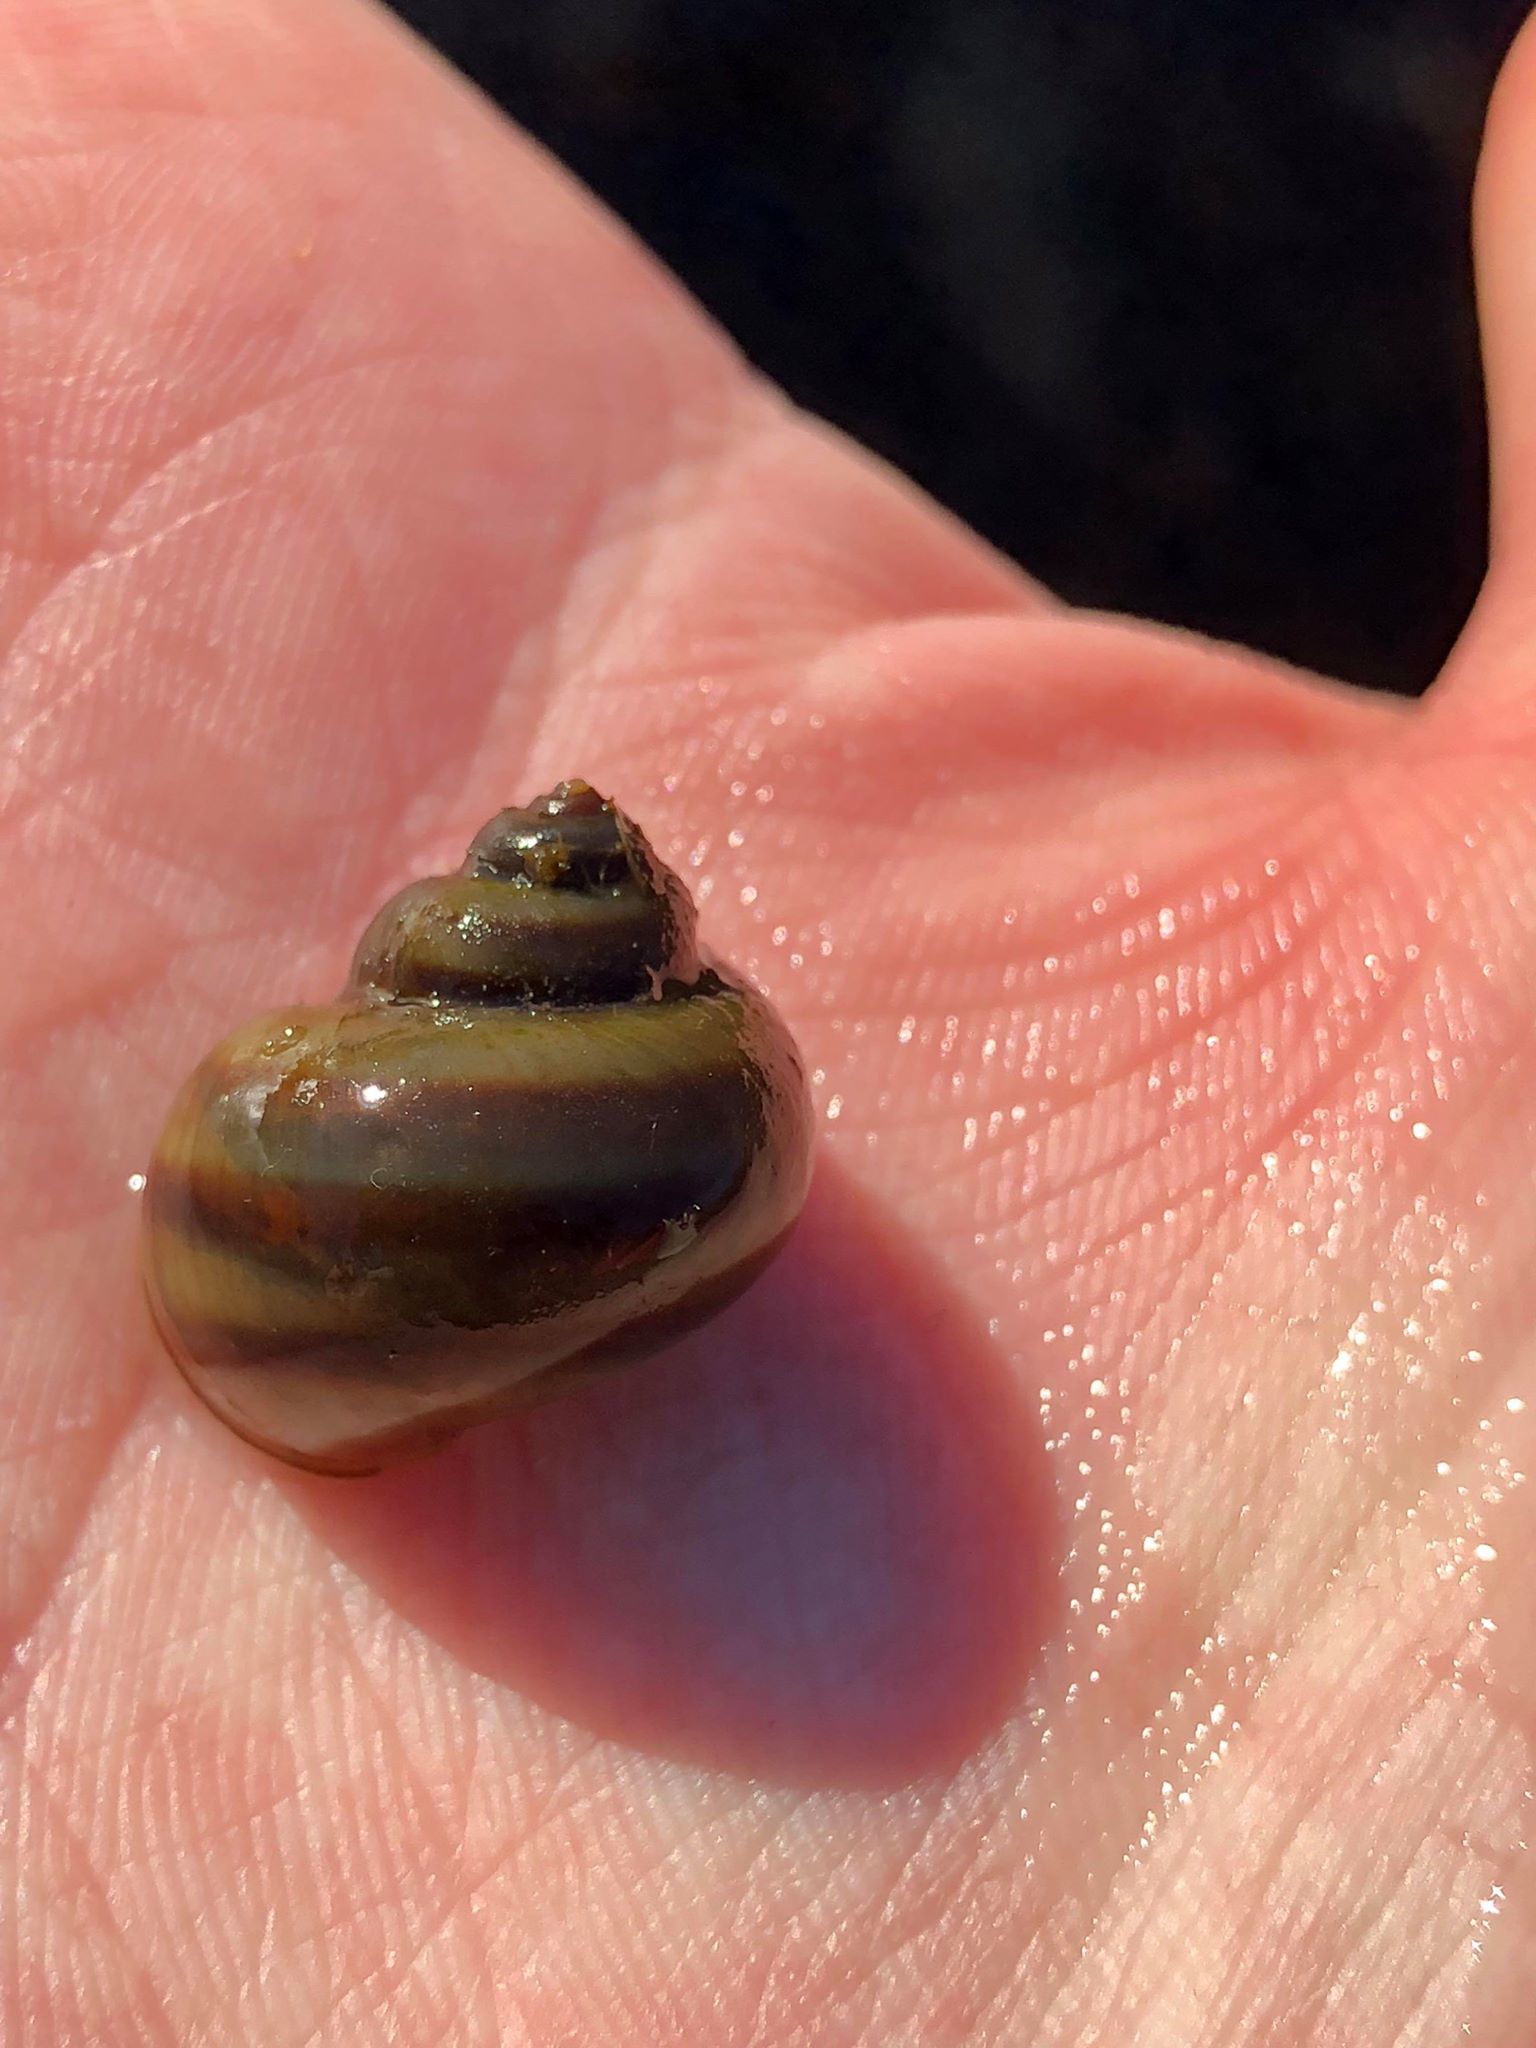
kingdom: Animalia
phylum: Mollusca
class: Gastropoda
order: Architaenioglossa
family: Viviparidae
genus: Callinina
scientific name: Callinina georgiana
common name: Banded mystery snail
